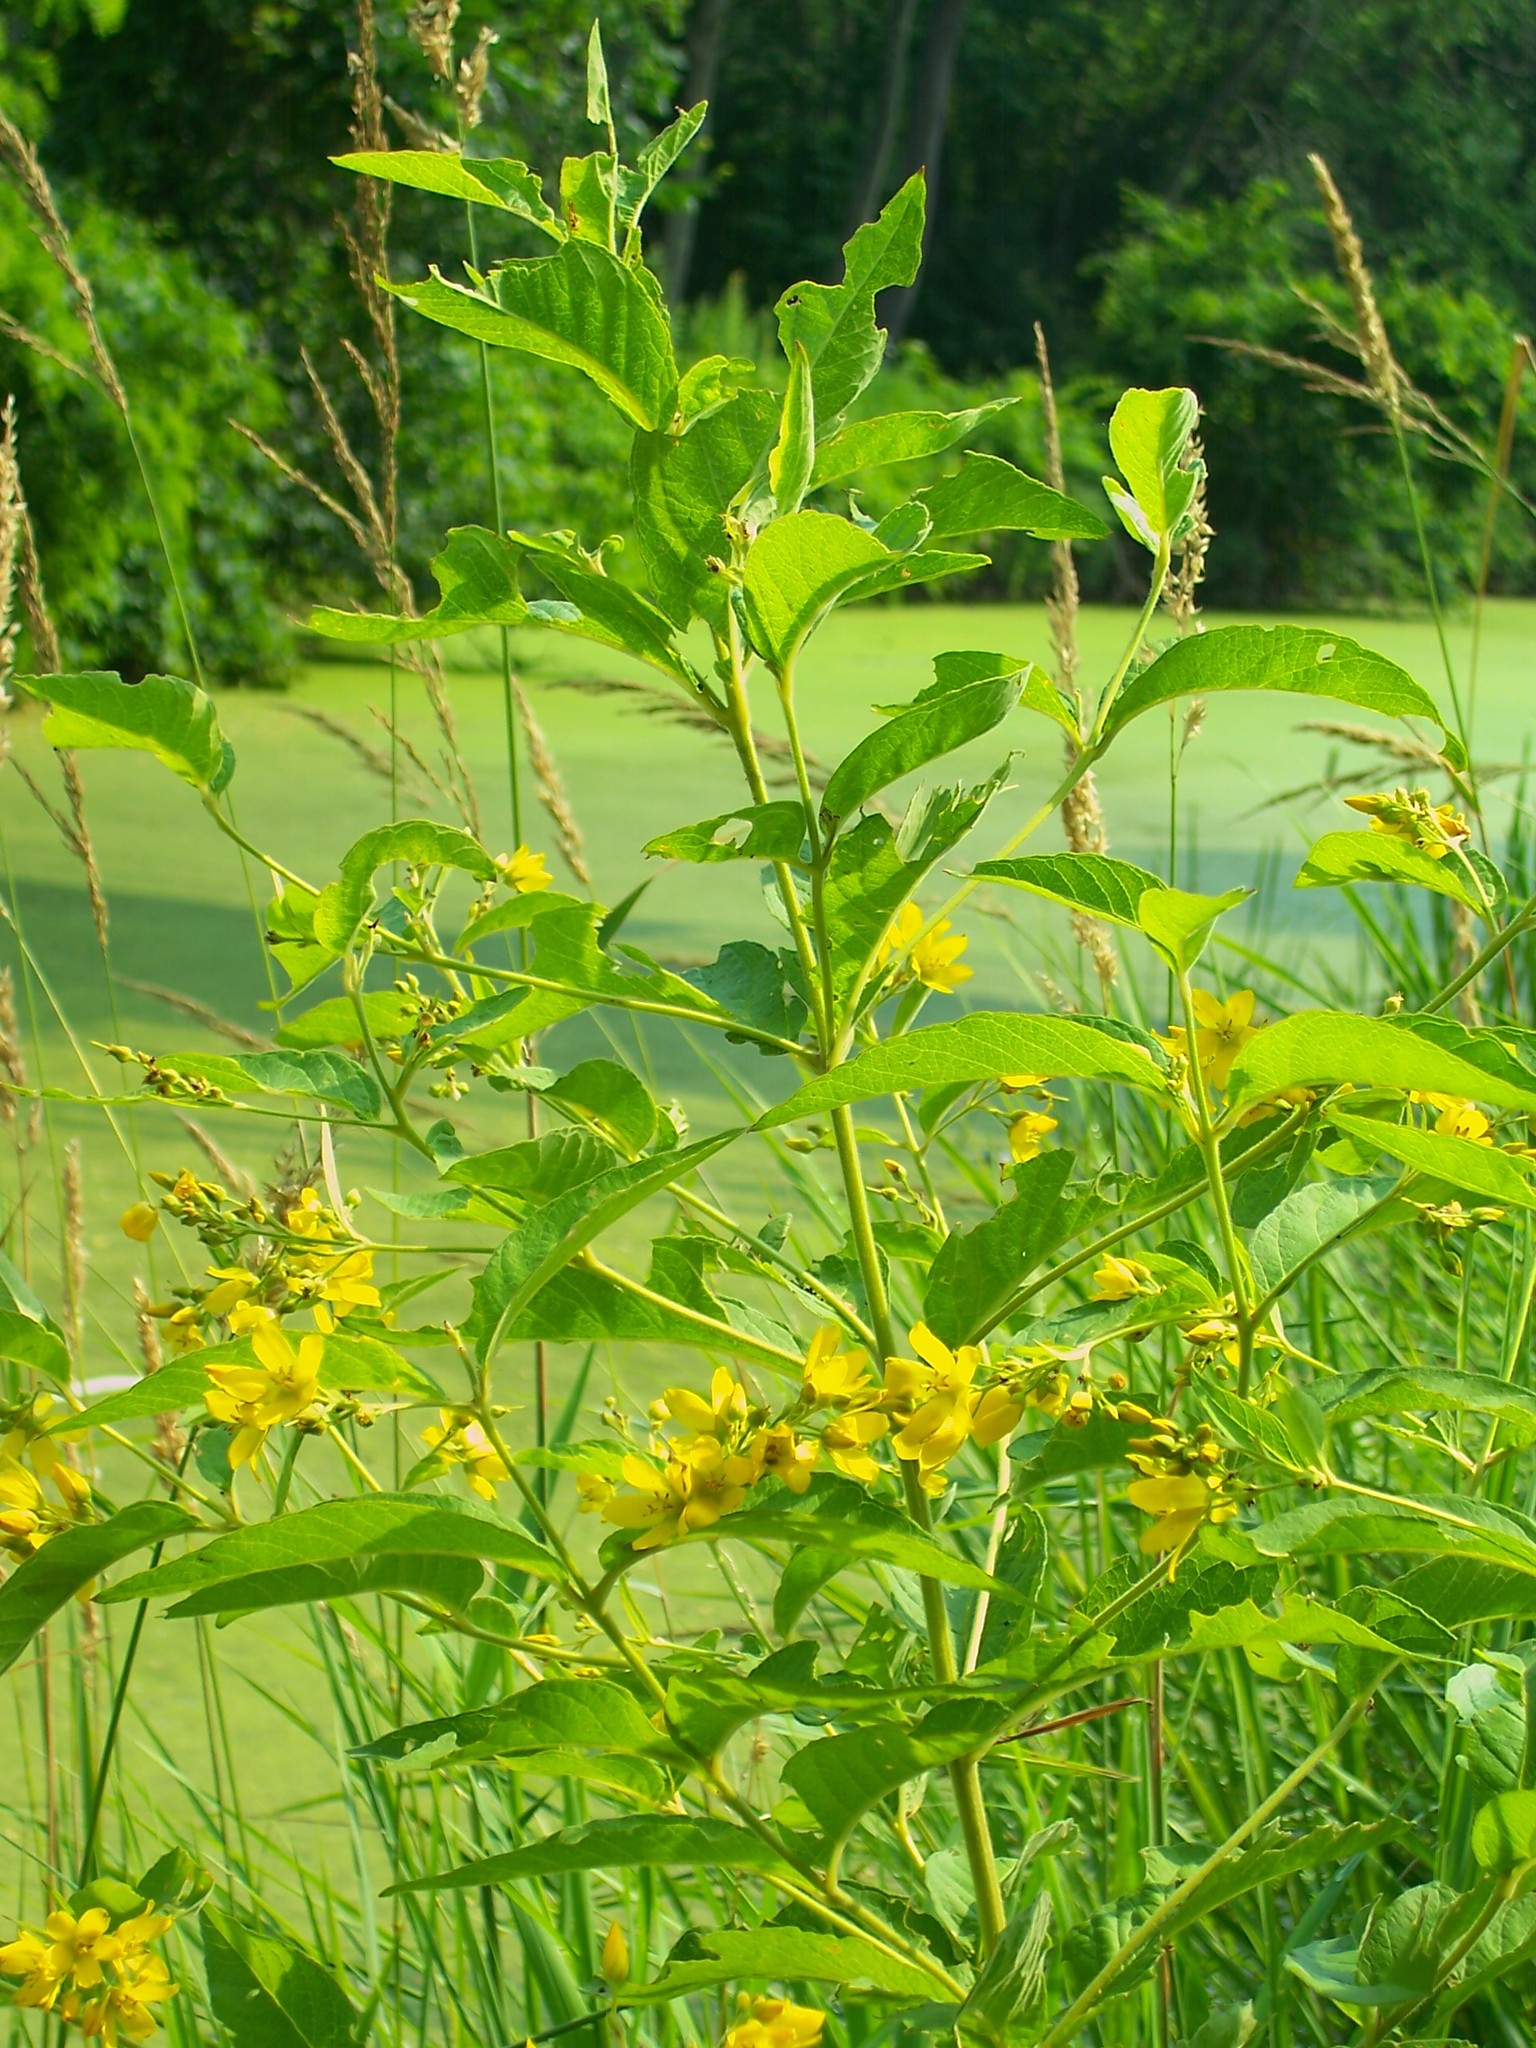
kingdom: Plantae
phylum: Tracheophyta
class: Magnoliopsida
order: Ericales
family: Primulaceae
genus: Lysimachia
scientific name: Lysimachia vulgaris
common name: Yellow loosestrife
